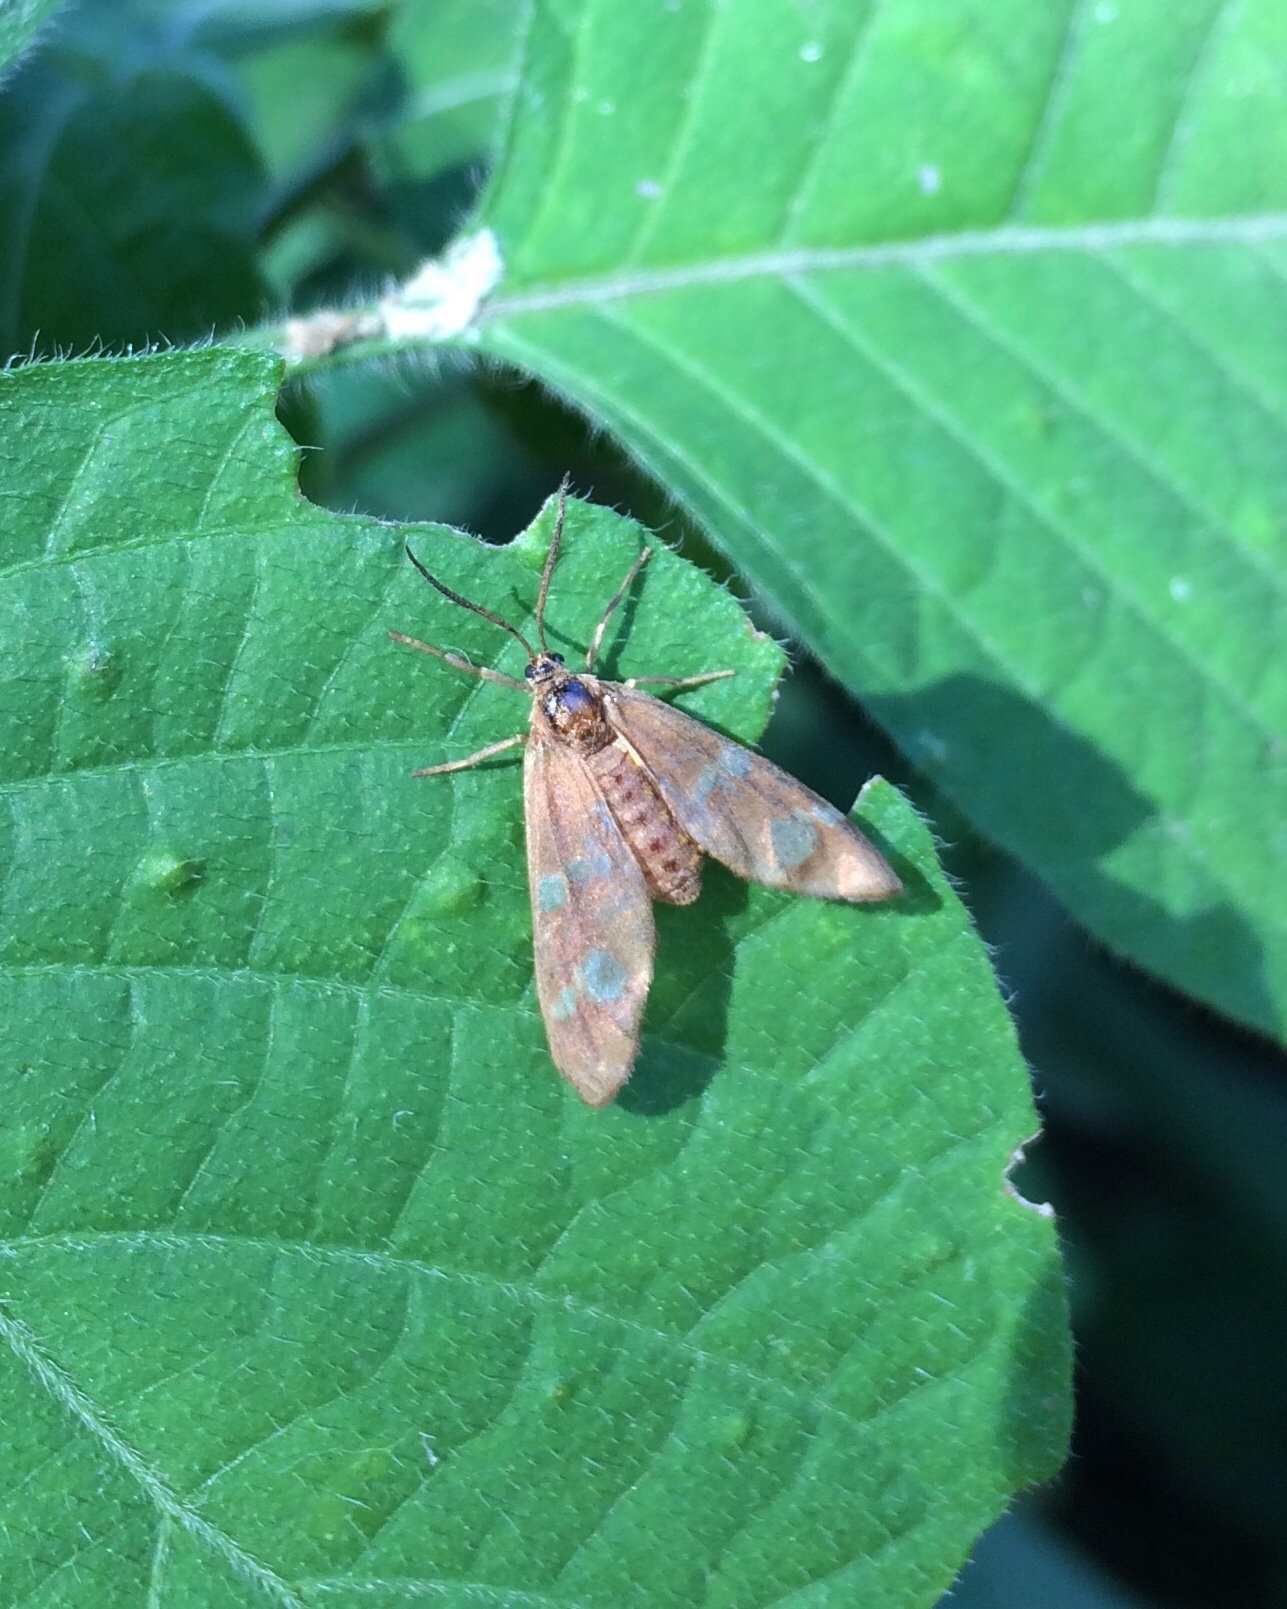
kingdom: Animalia
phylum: Arthropoda
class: Insecta
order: Lepidoptera
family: Erebidae
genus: Pseudonaclia
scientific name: Pseudonaclia puella
